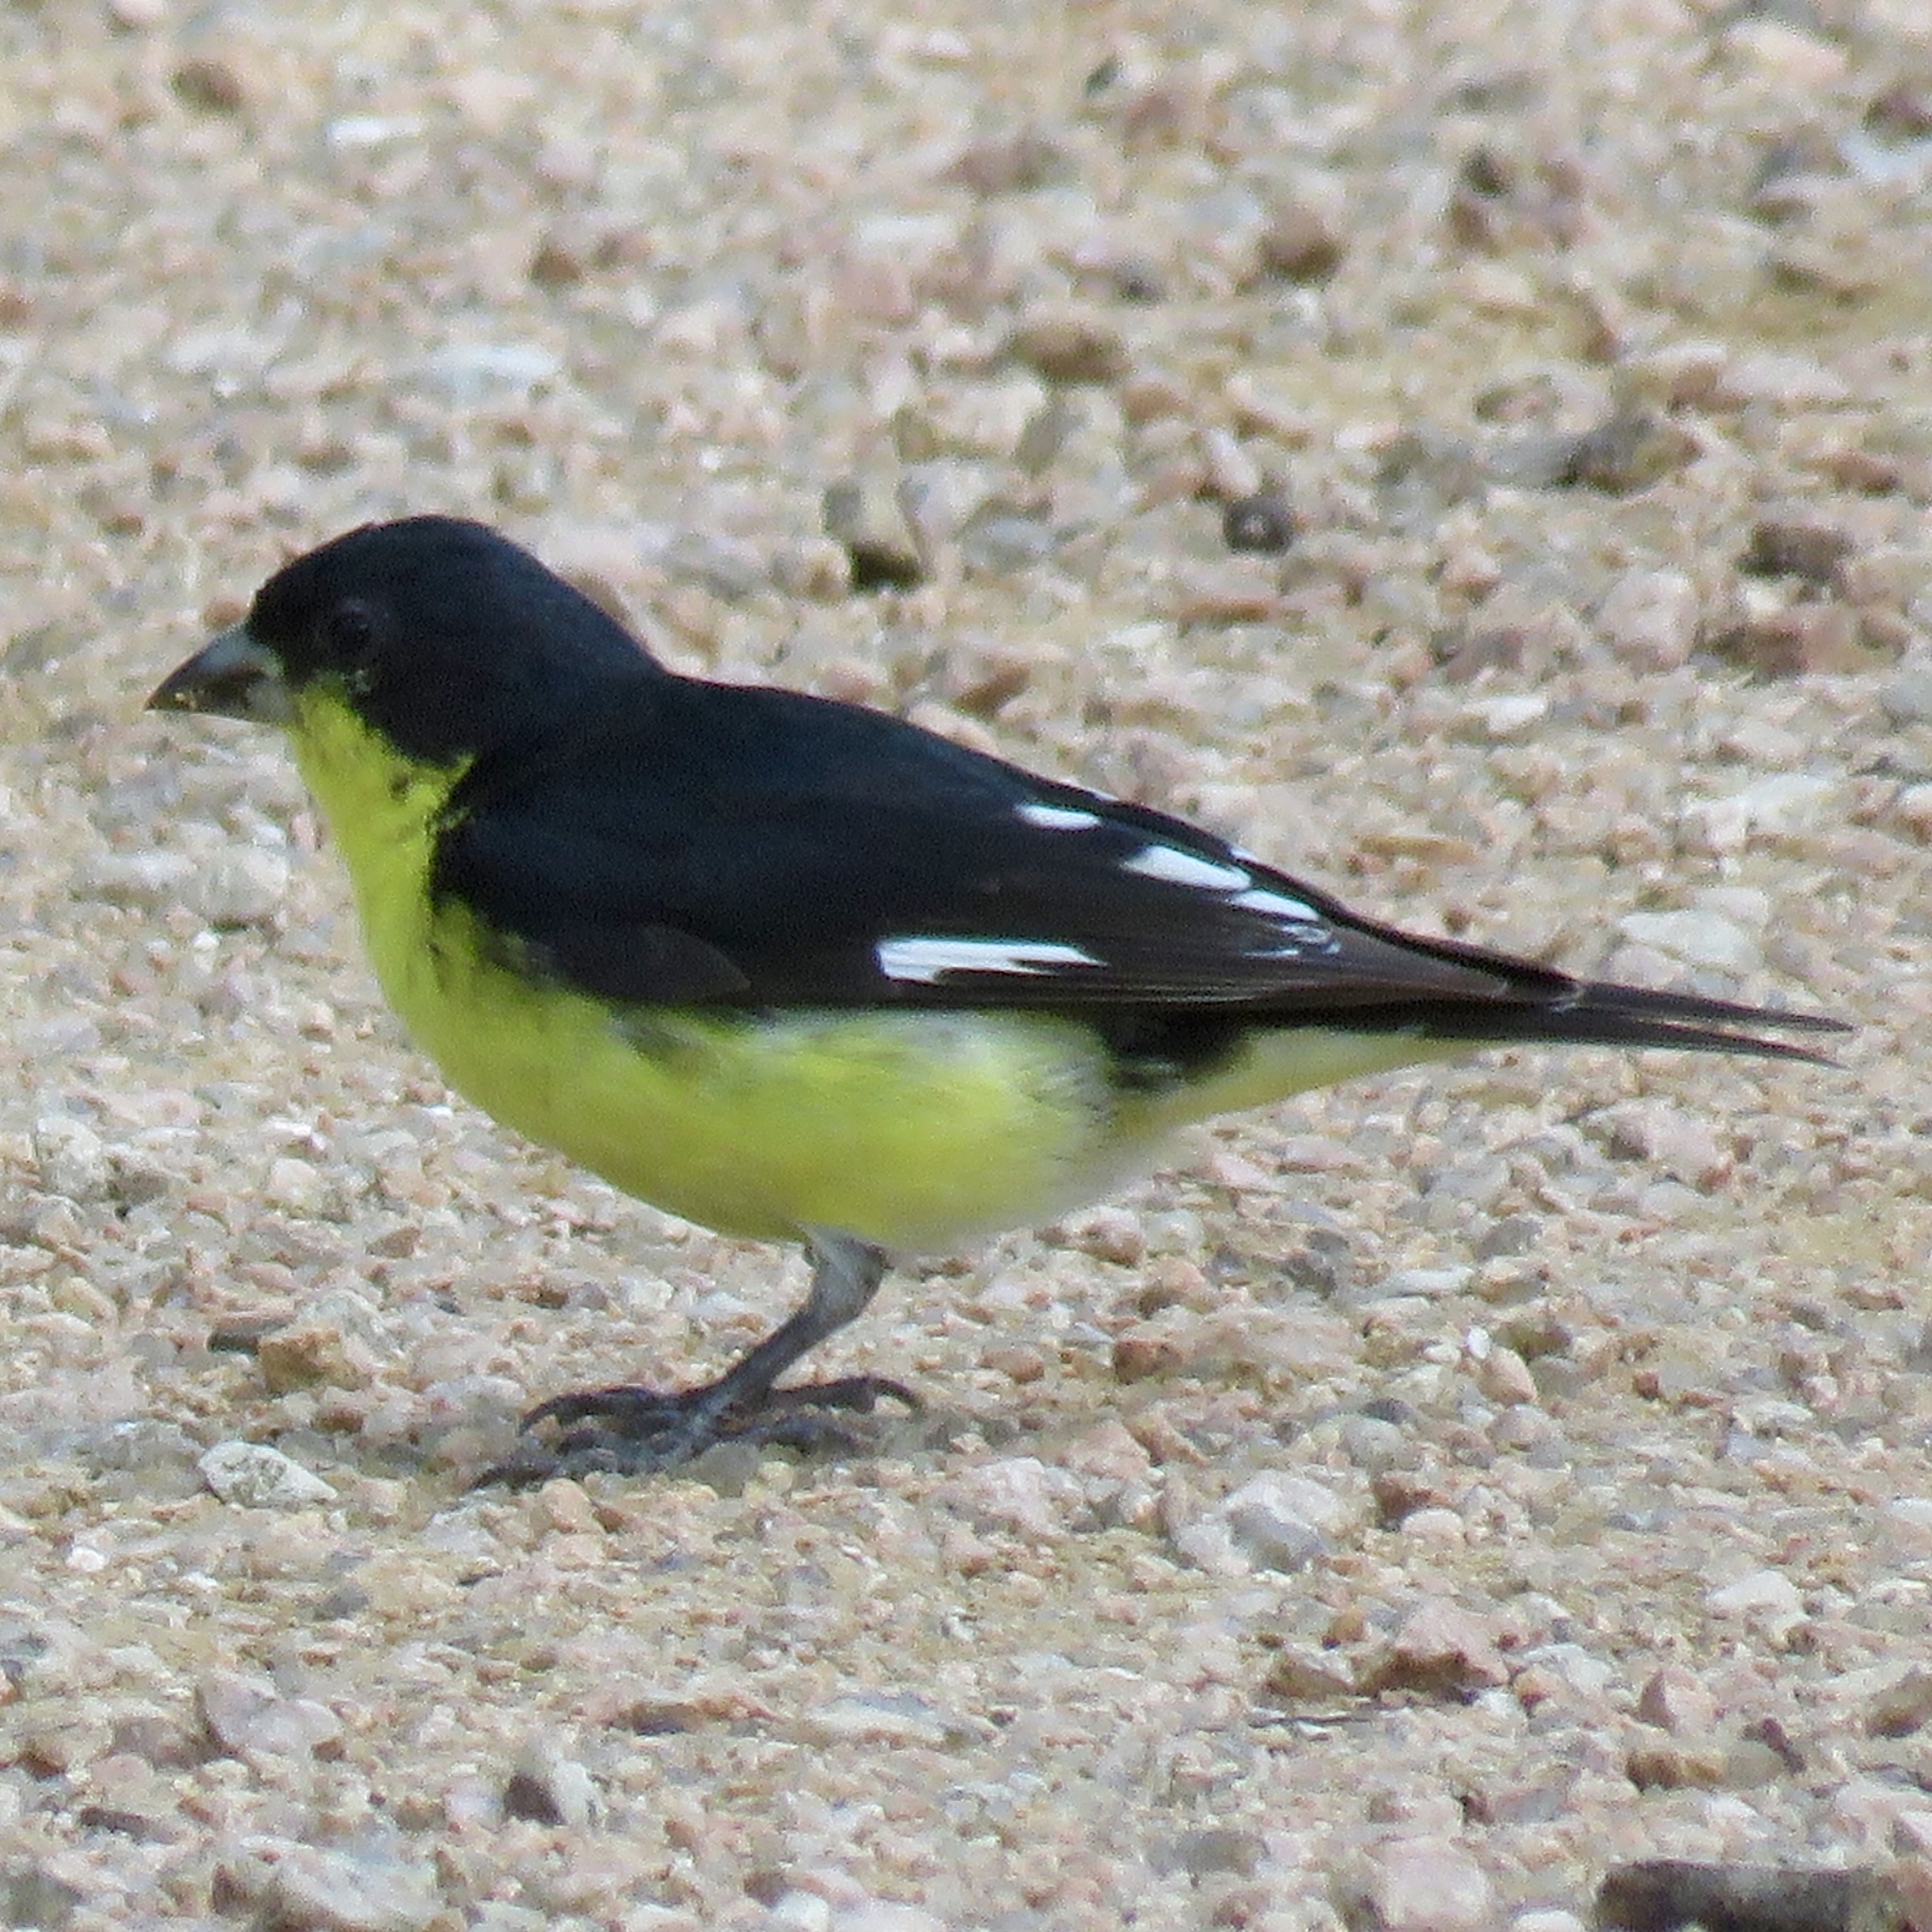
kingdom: Animalia
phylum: Chordata
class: Aves
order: Passeriformes
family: Fringillidae
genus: Spinus
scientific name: Spinus psaltria
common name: Lesser goldfinch
